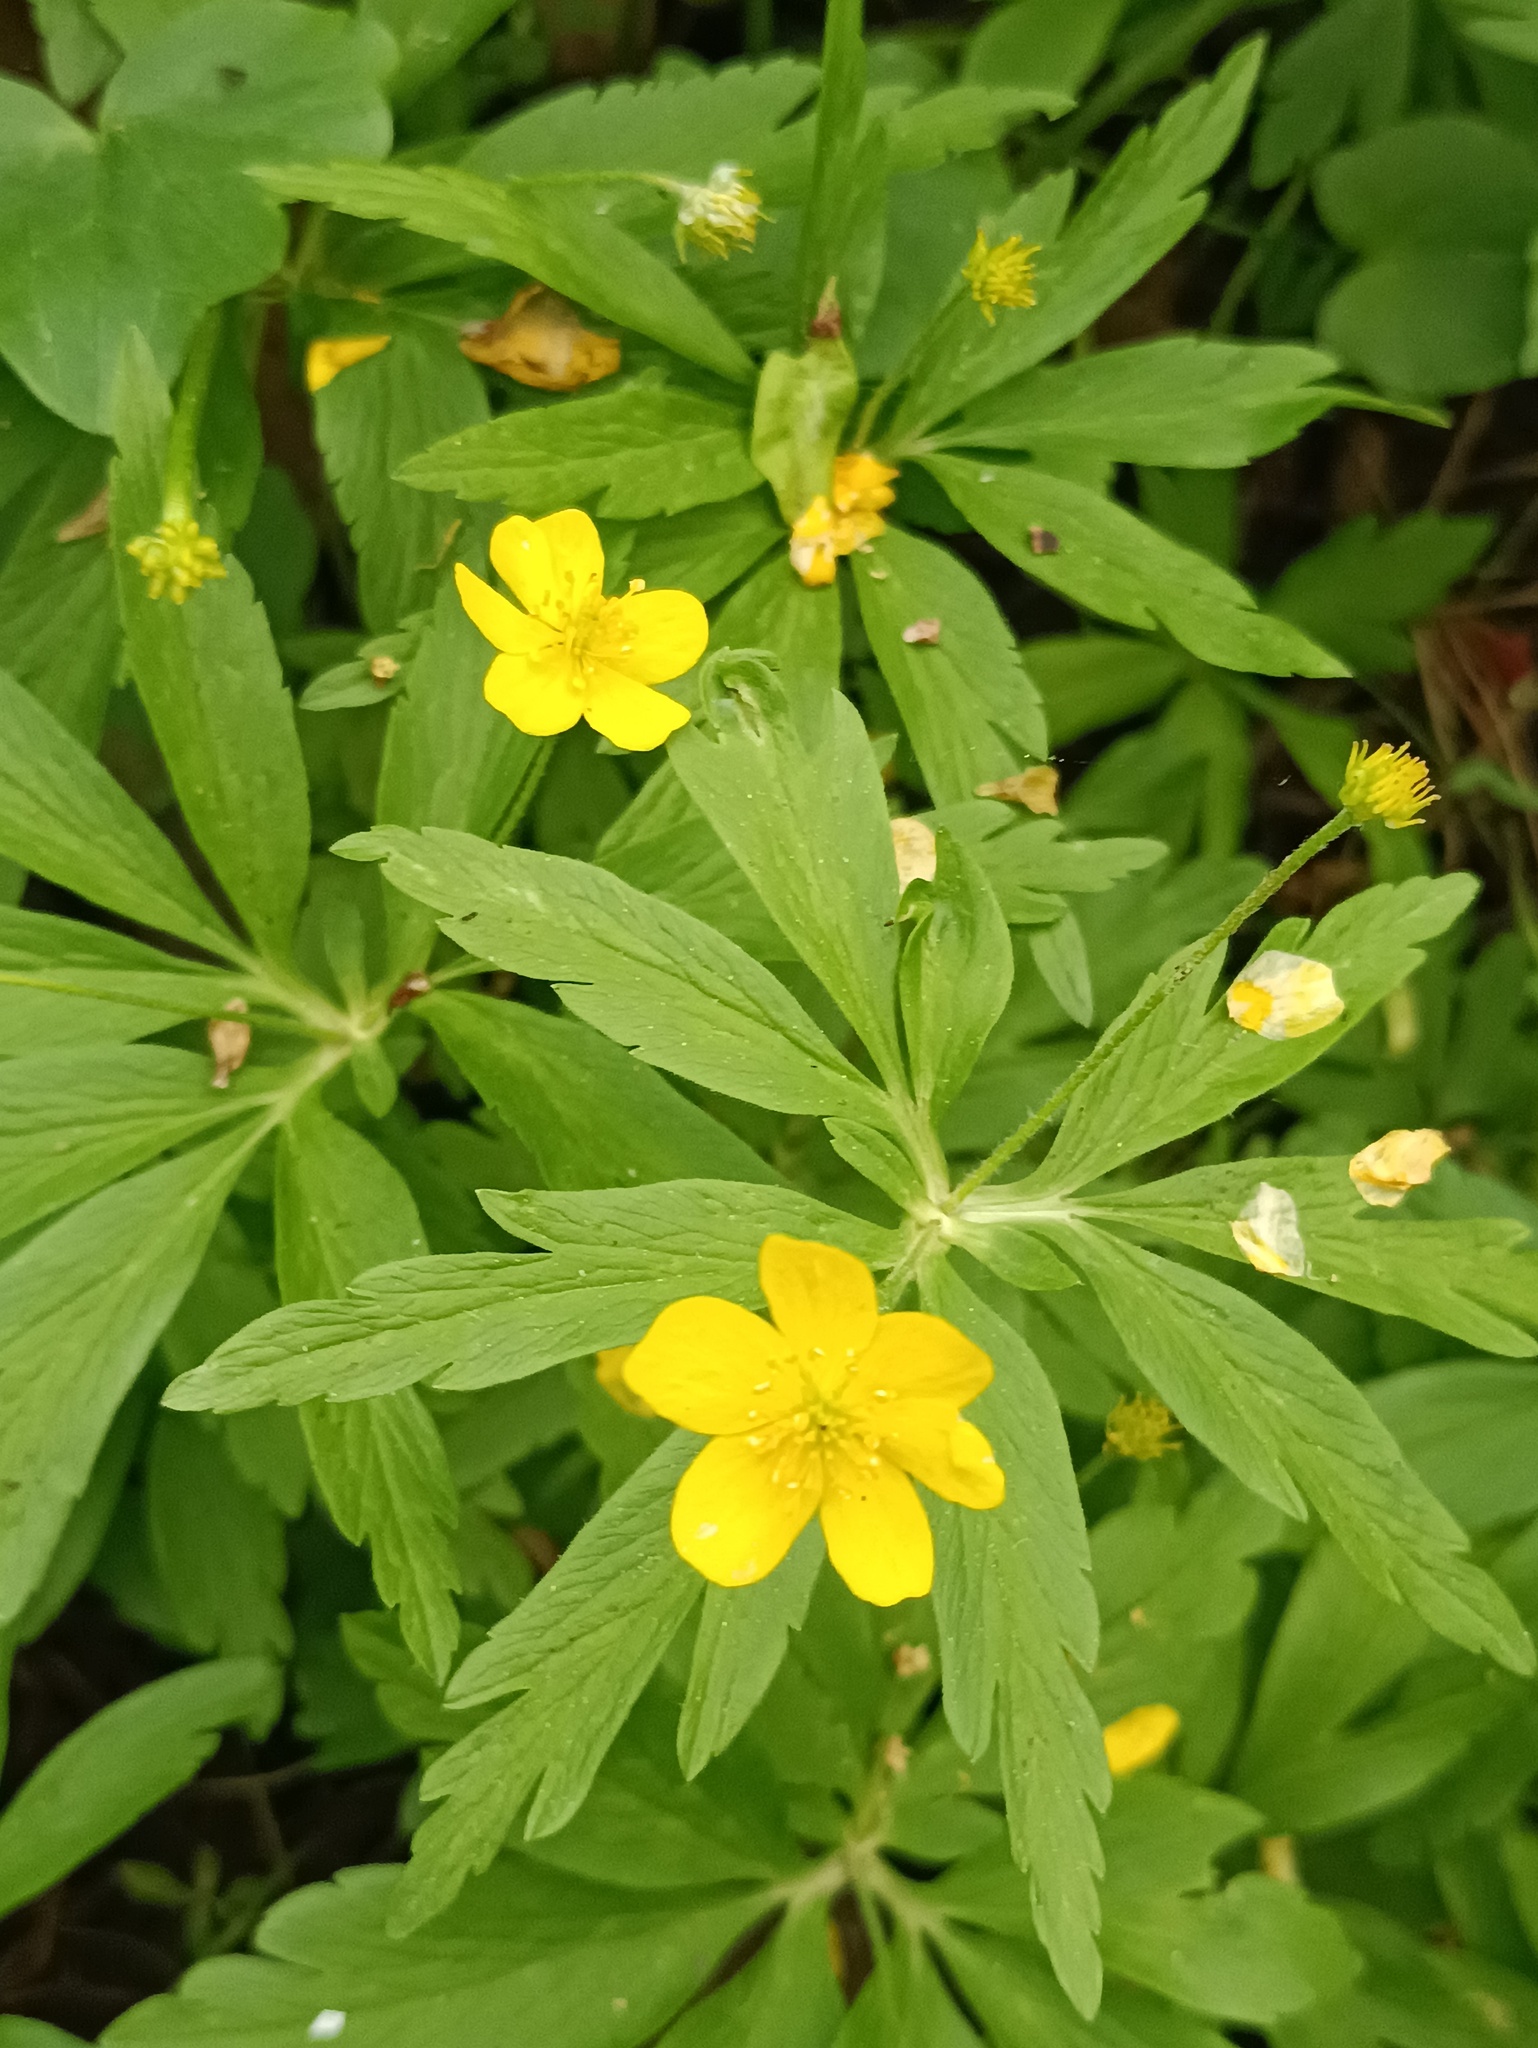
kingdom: Plantae
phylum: Tracheophyta
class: Magnoliopsida
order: Ranunculales
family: Ranunculaceae
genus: Anemone
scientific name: Anemone ranunculoides
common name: Yellow anemone
